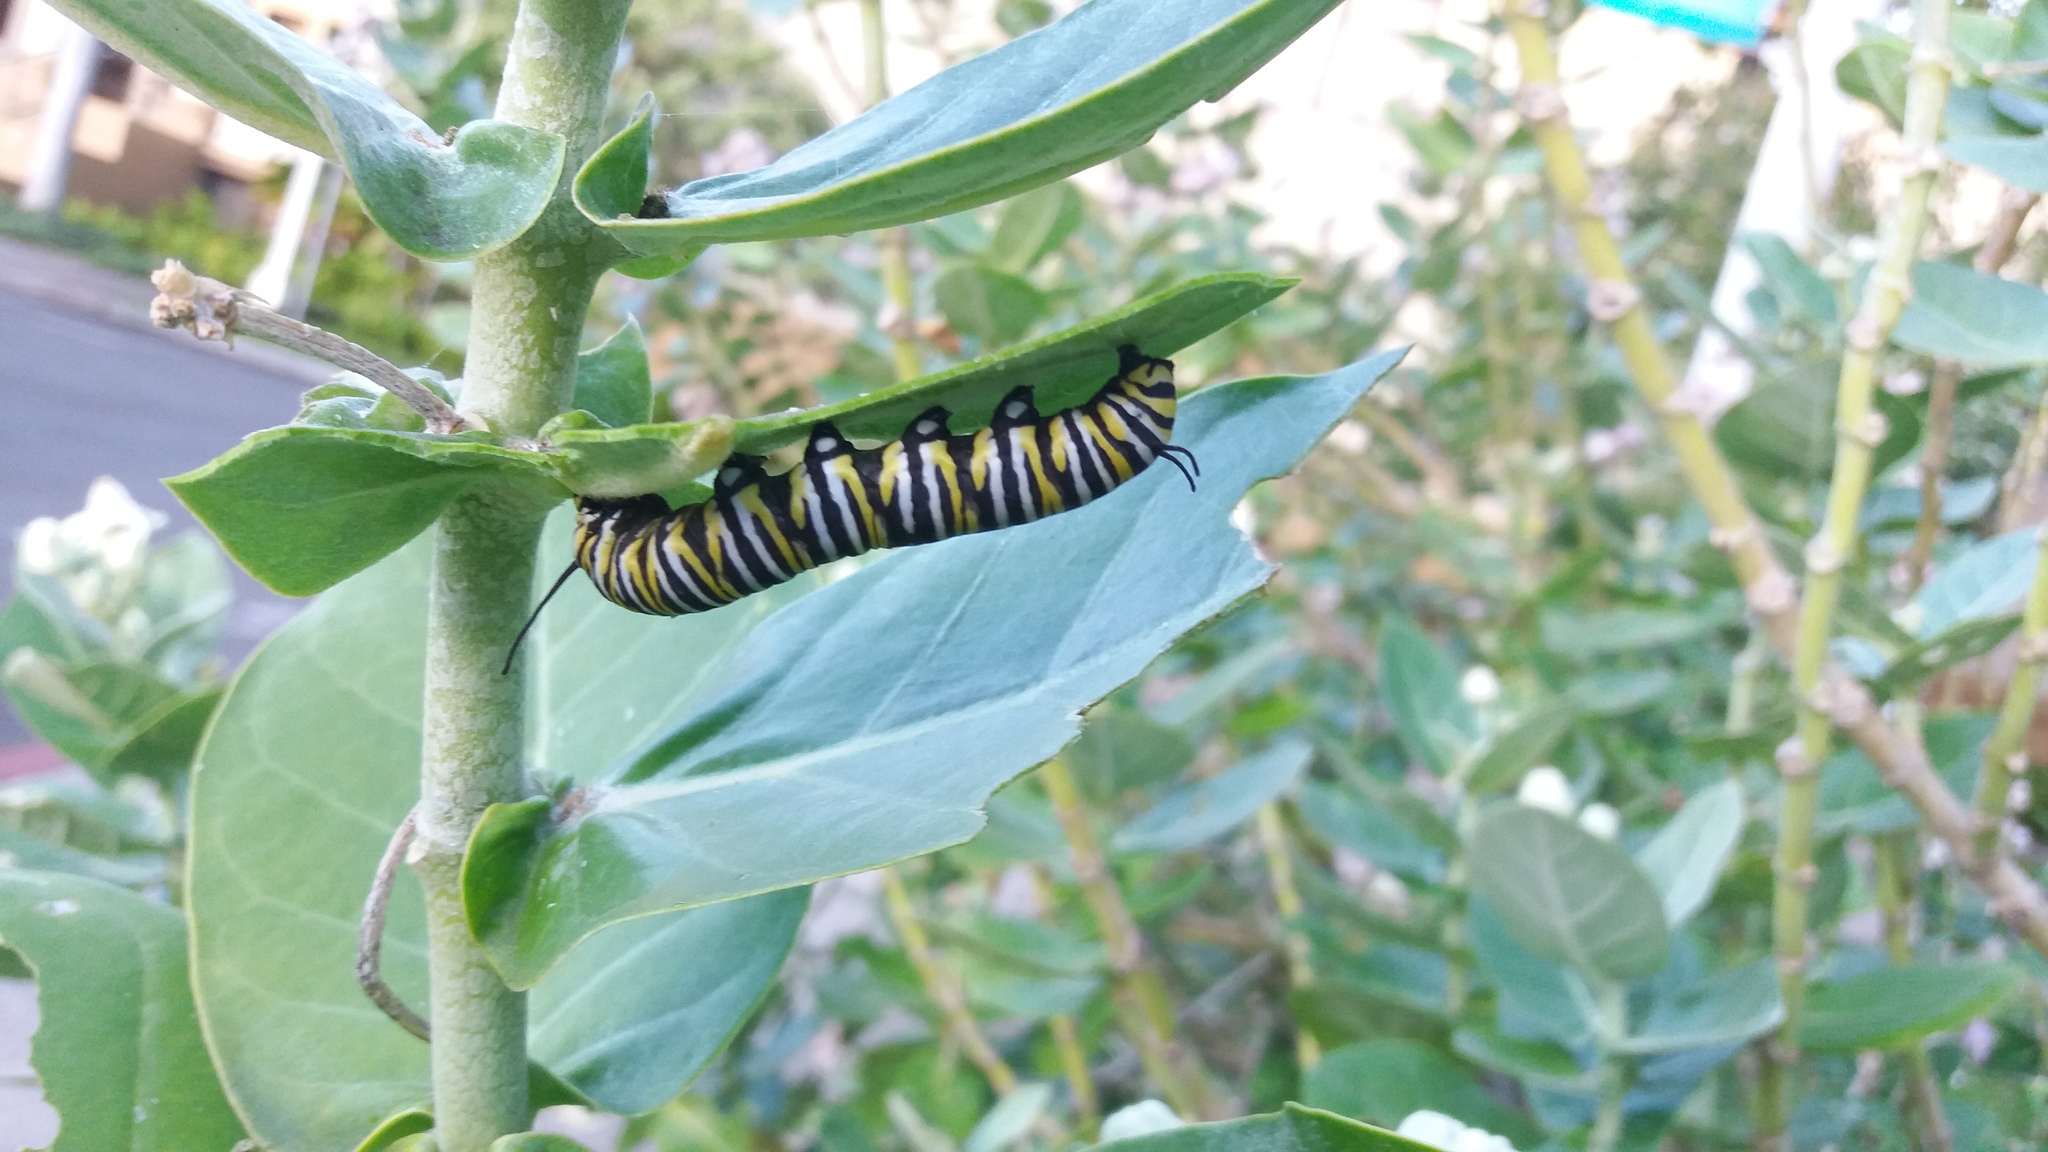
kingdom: Animalia
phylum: Arthropoda
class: Insecta
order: Lepidoptera
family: Nymphalidae
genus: Danaus
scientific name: Danaus plexippus
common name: Monarch
